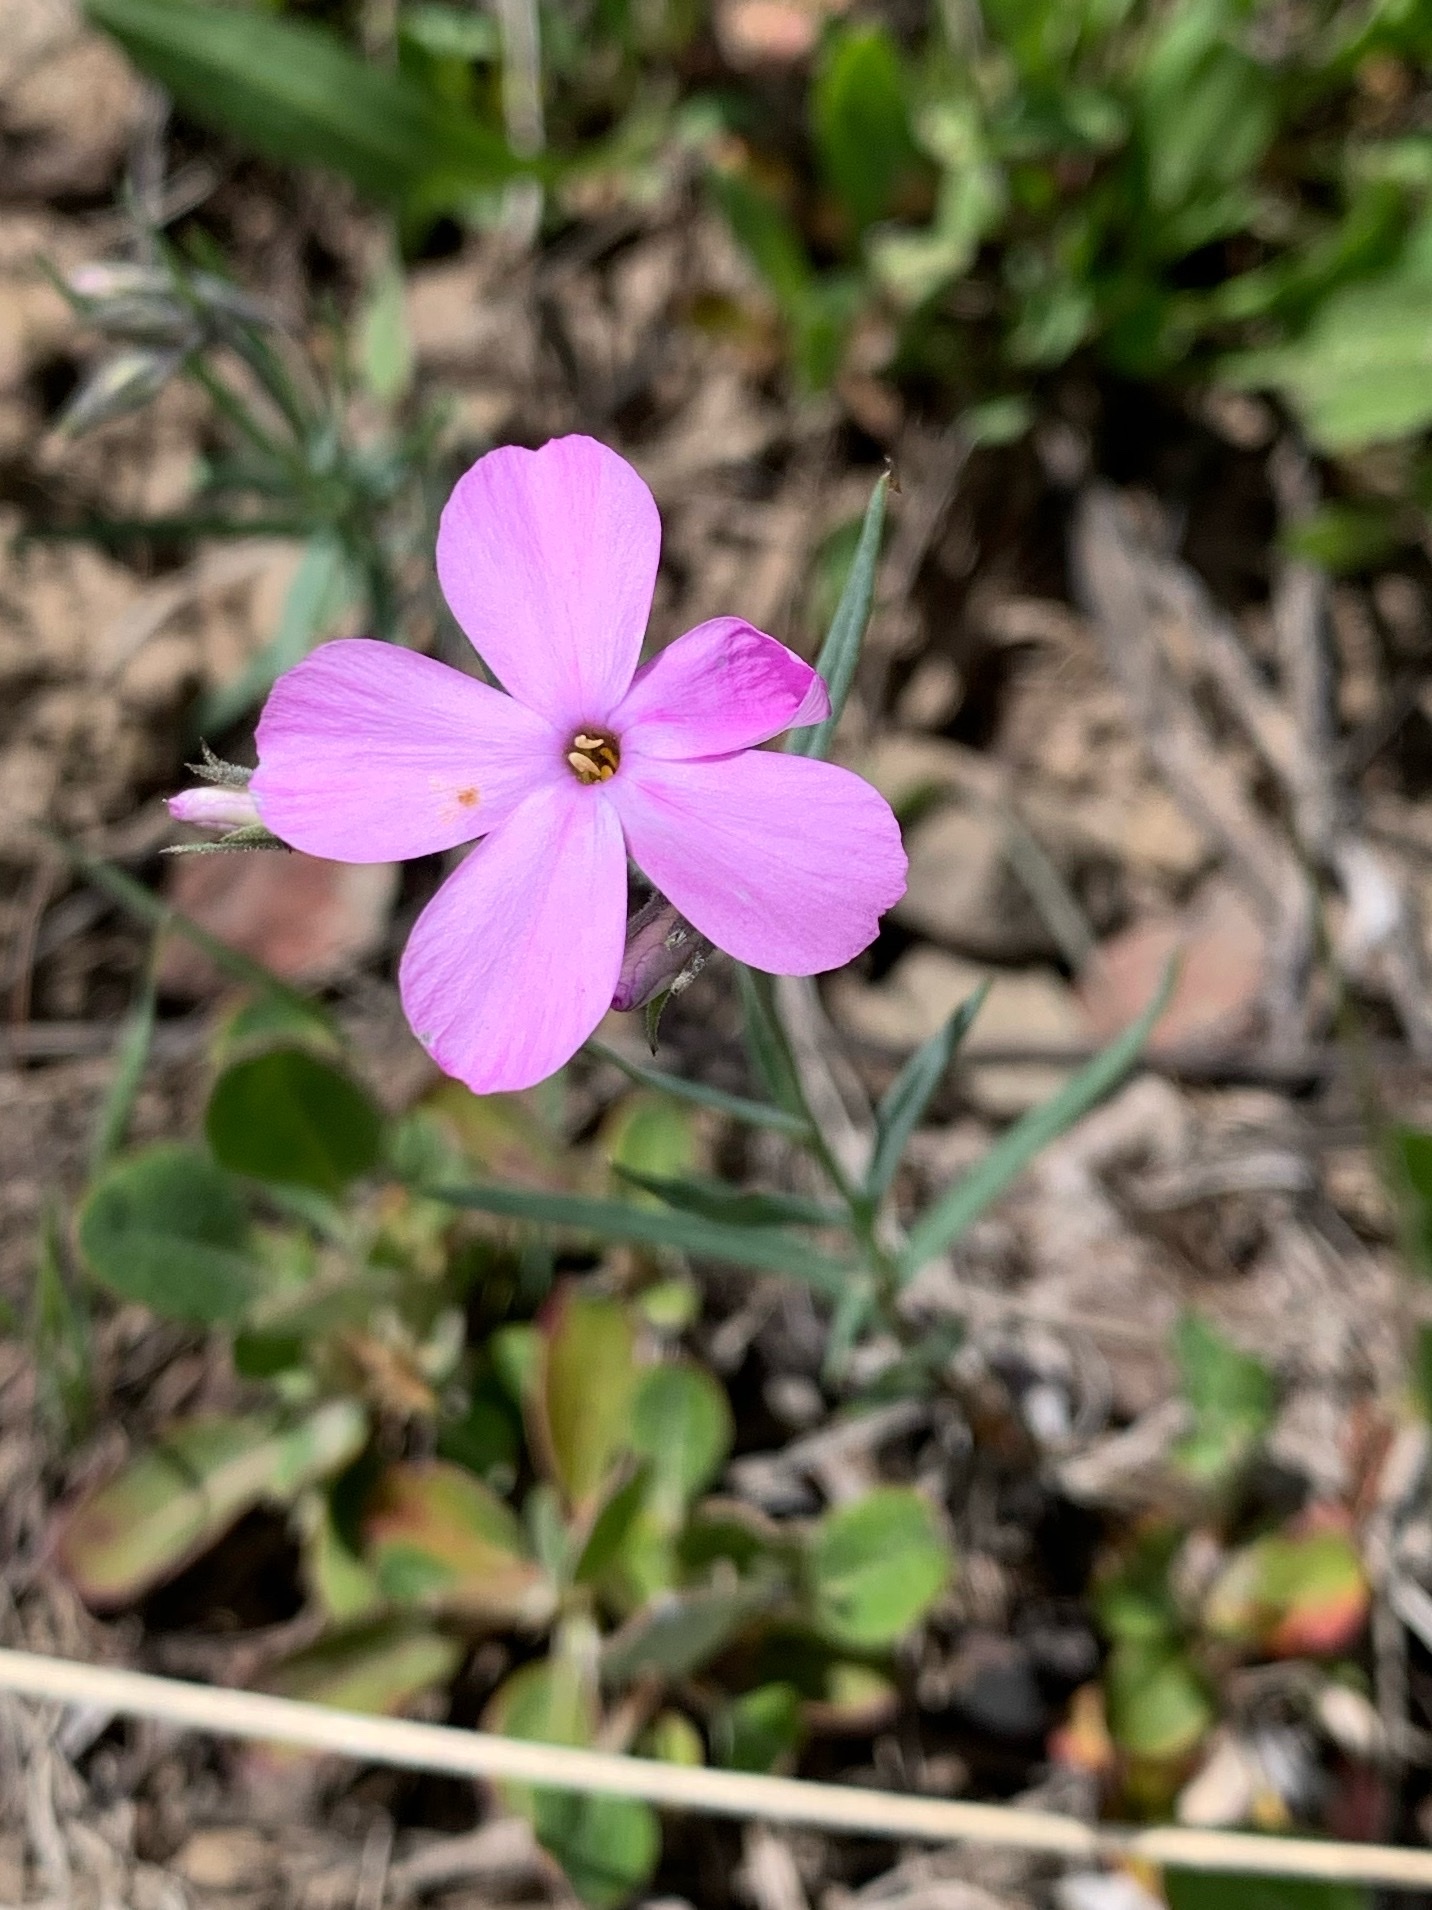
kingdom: Plantae
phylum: Tracheophyta
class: Magnoliopsida
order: Ericales
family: Polemoniaceae
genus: Phlox
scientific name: Phlox longifolia
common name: Longleaf phlox
